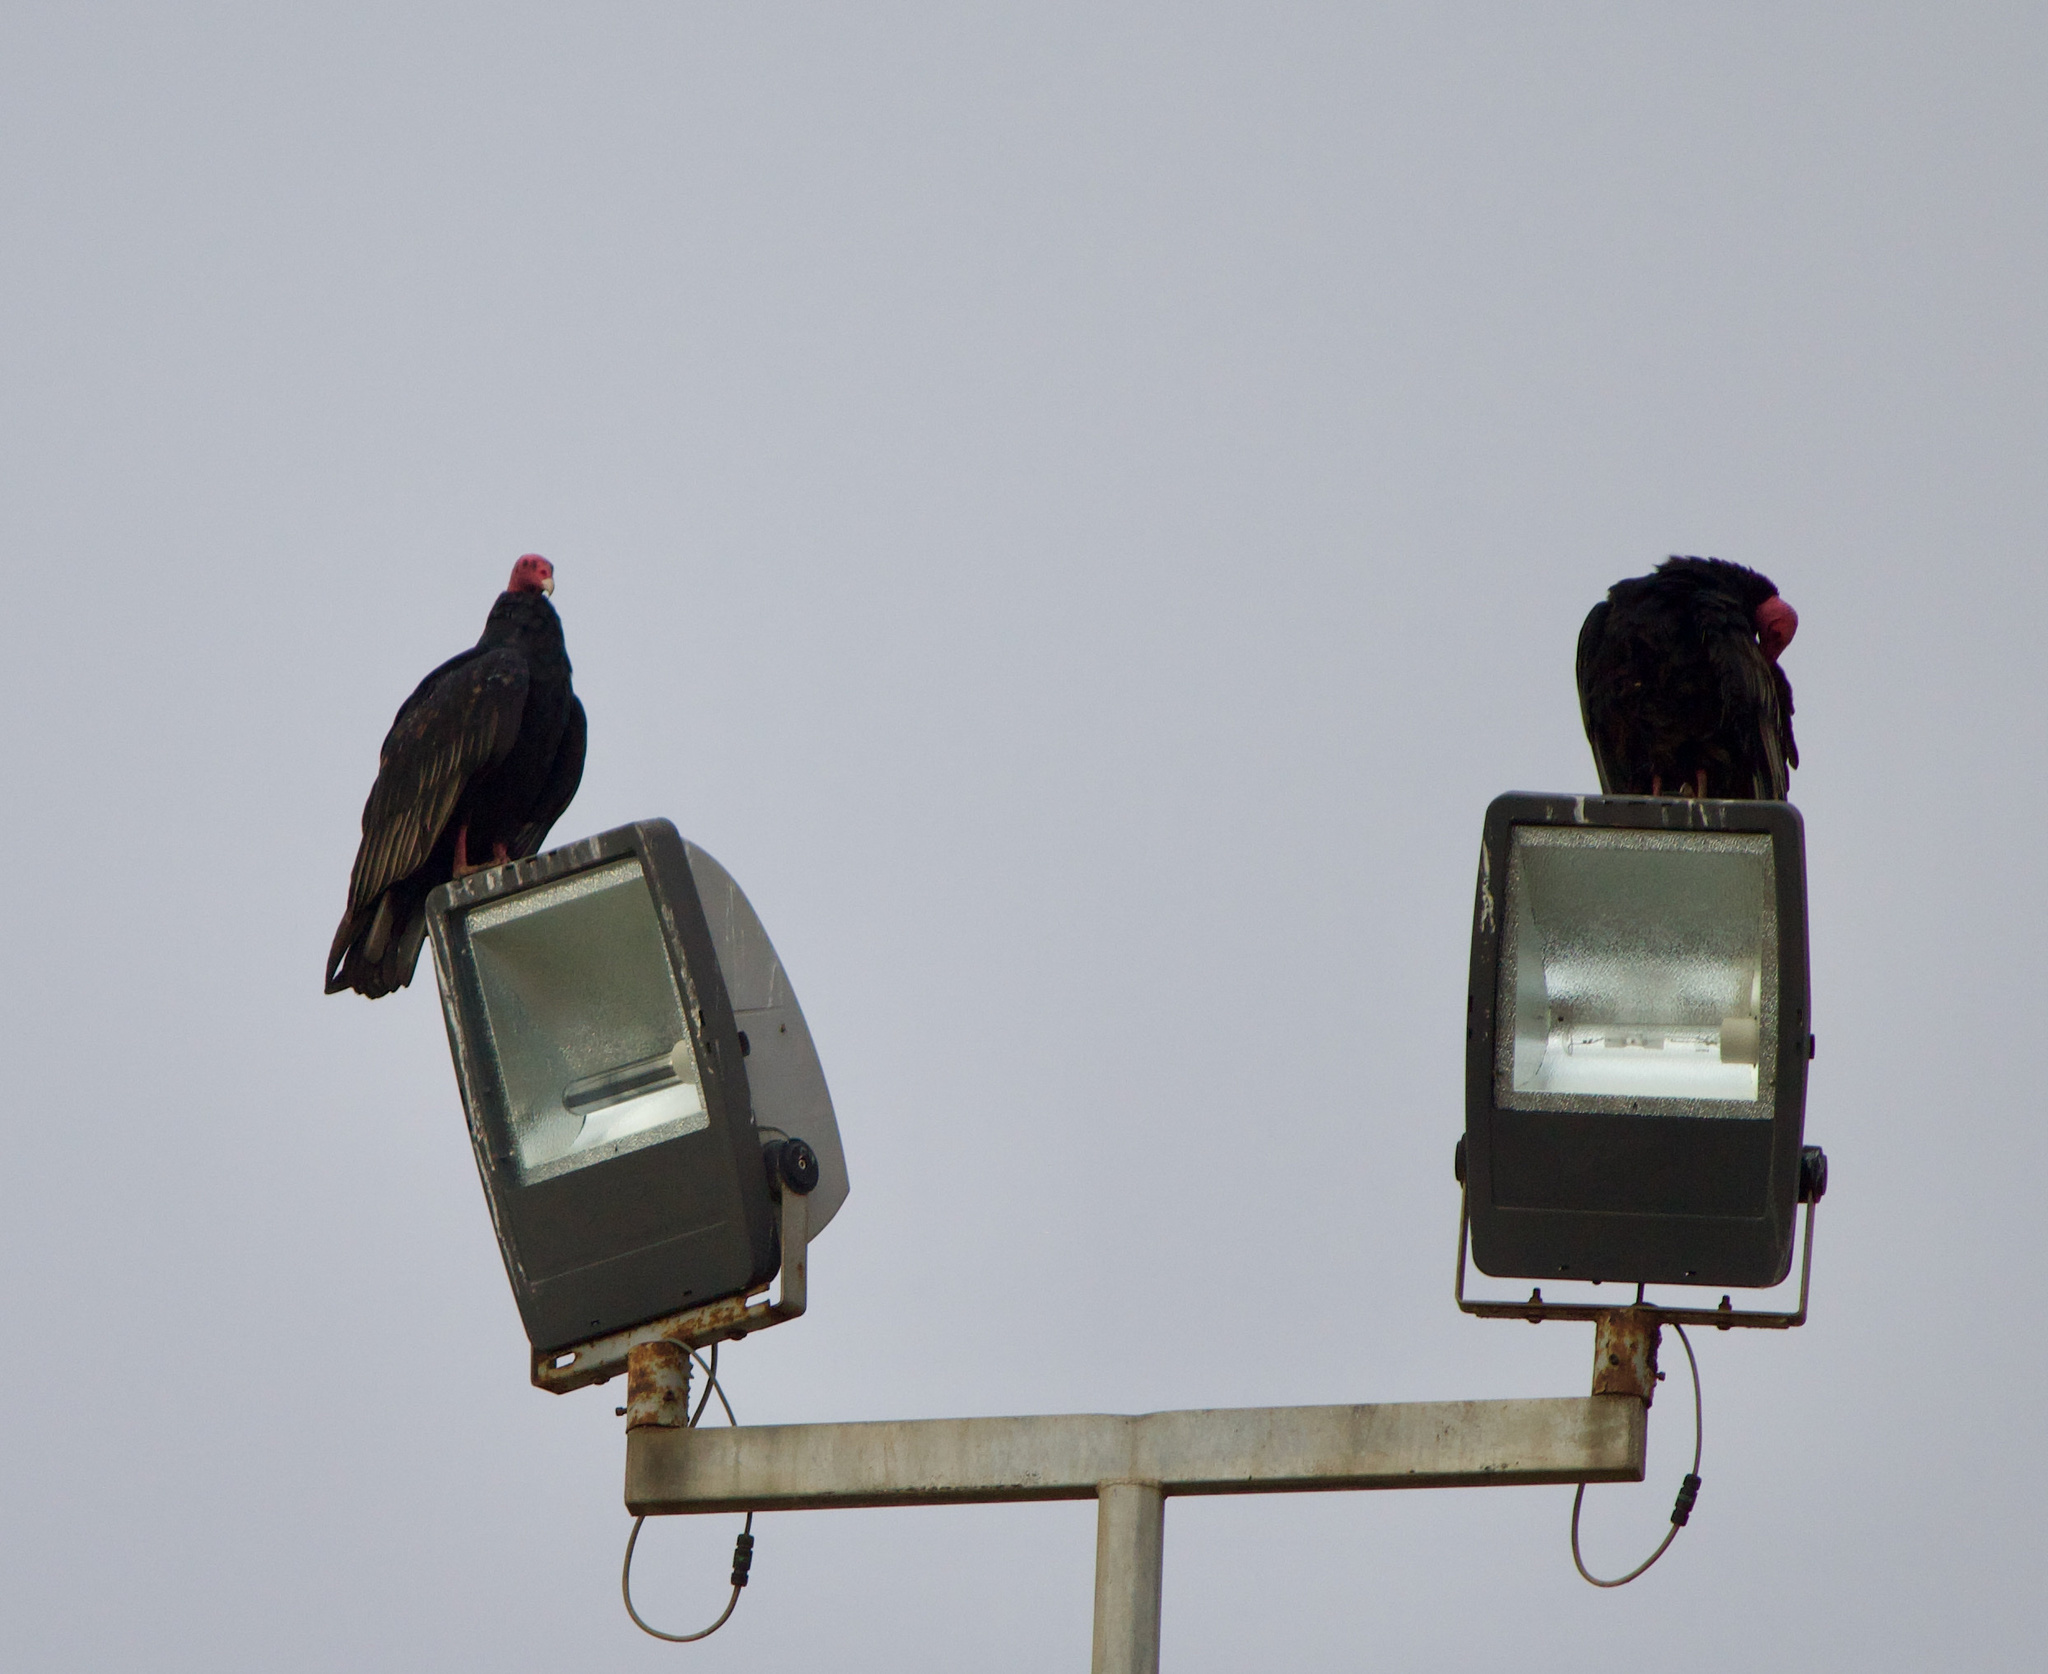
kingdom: Animalia
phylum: Chordata
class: Aves
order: Accipitriformes
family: Cathartidae
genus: Cathartes
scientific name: Cathartes aura
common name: Turkey vulture
